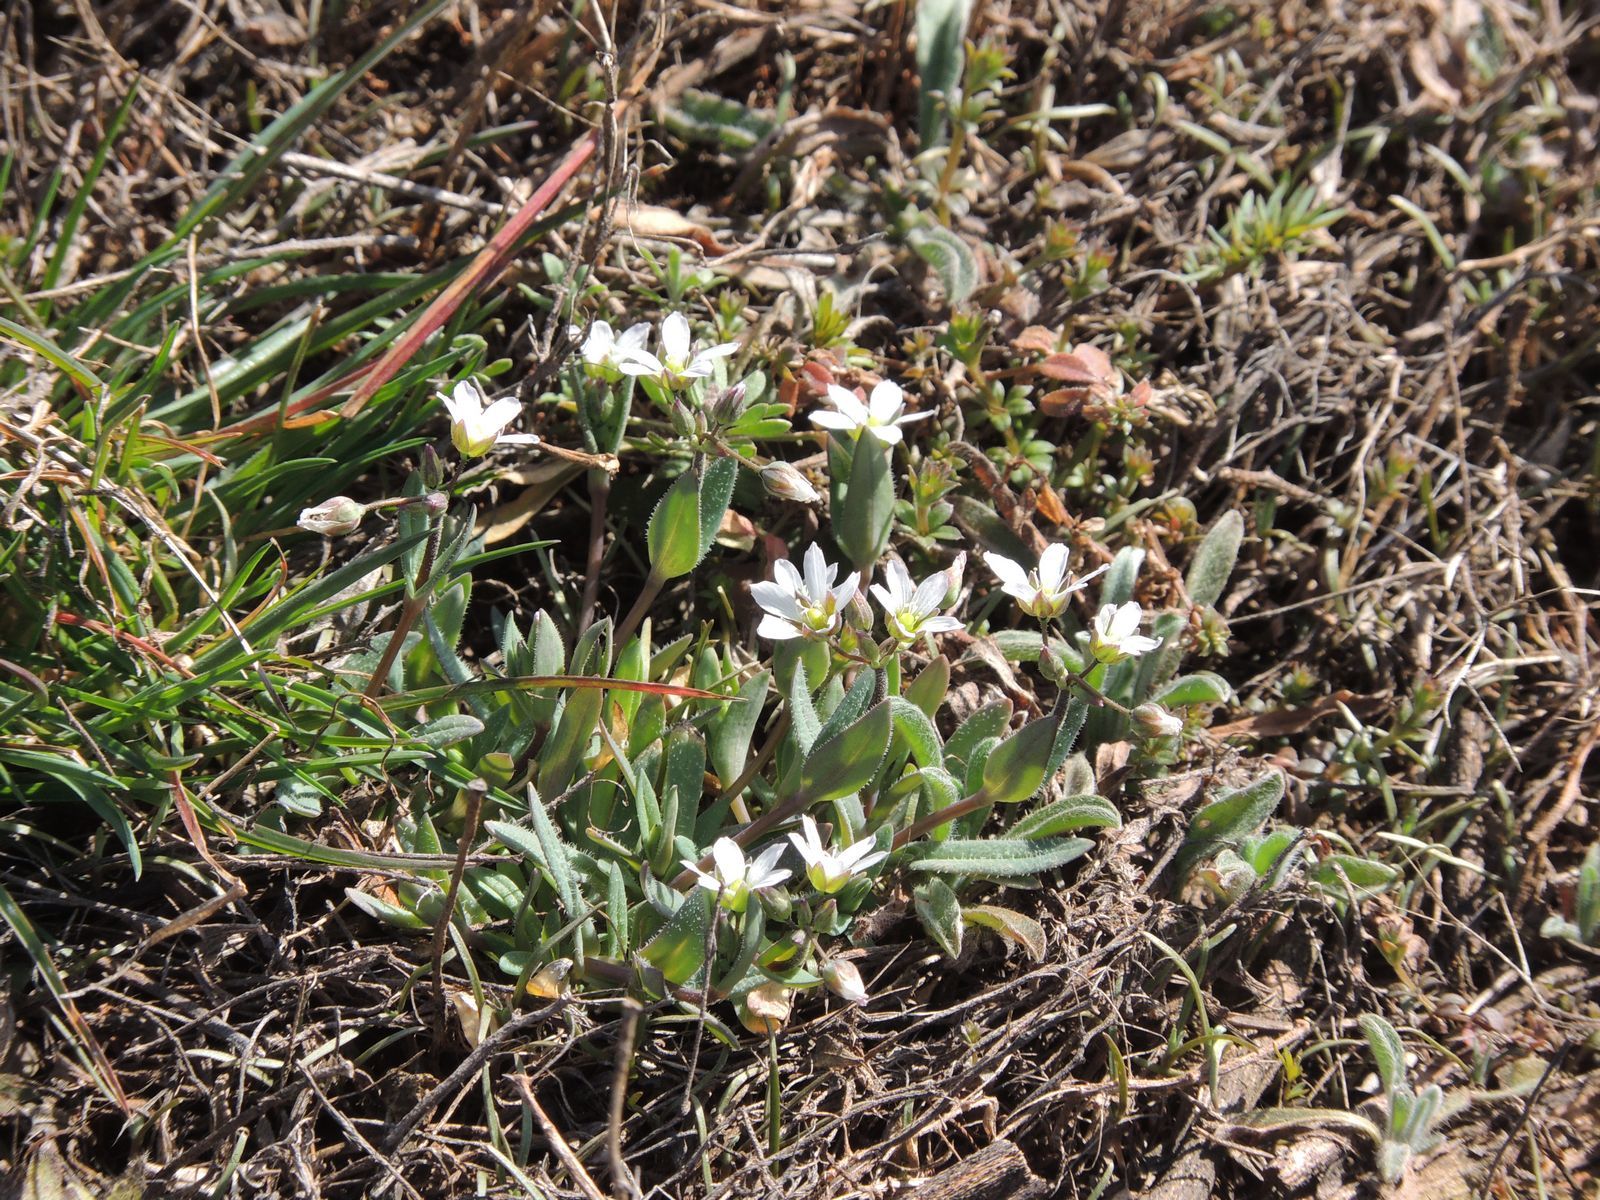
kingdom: Plantae
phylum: Tracheophyta
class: Magnoliopsida
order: Caryophyllales
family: Caryophyllaceae
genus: Holosteum
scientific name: Holosteum umbellatum
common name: Jagged chickweed
